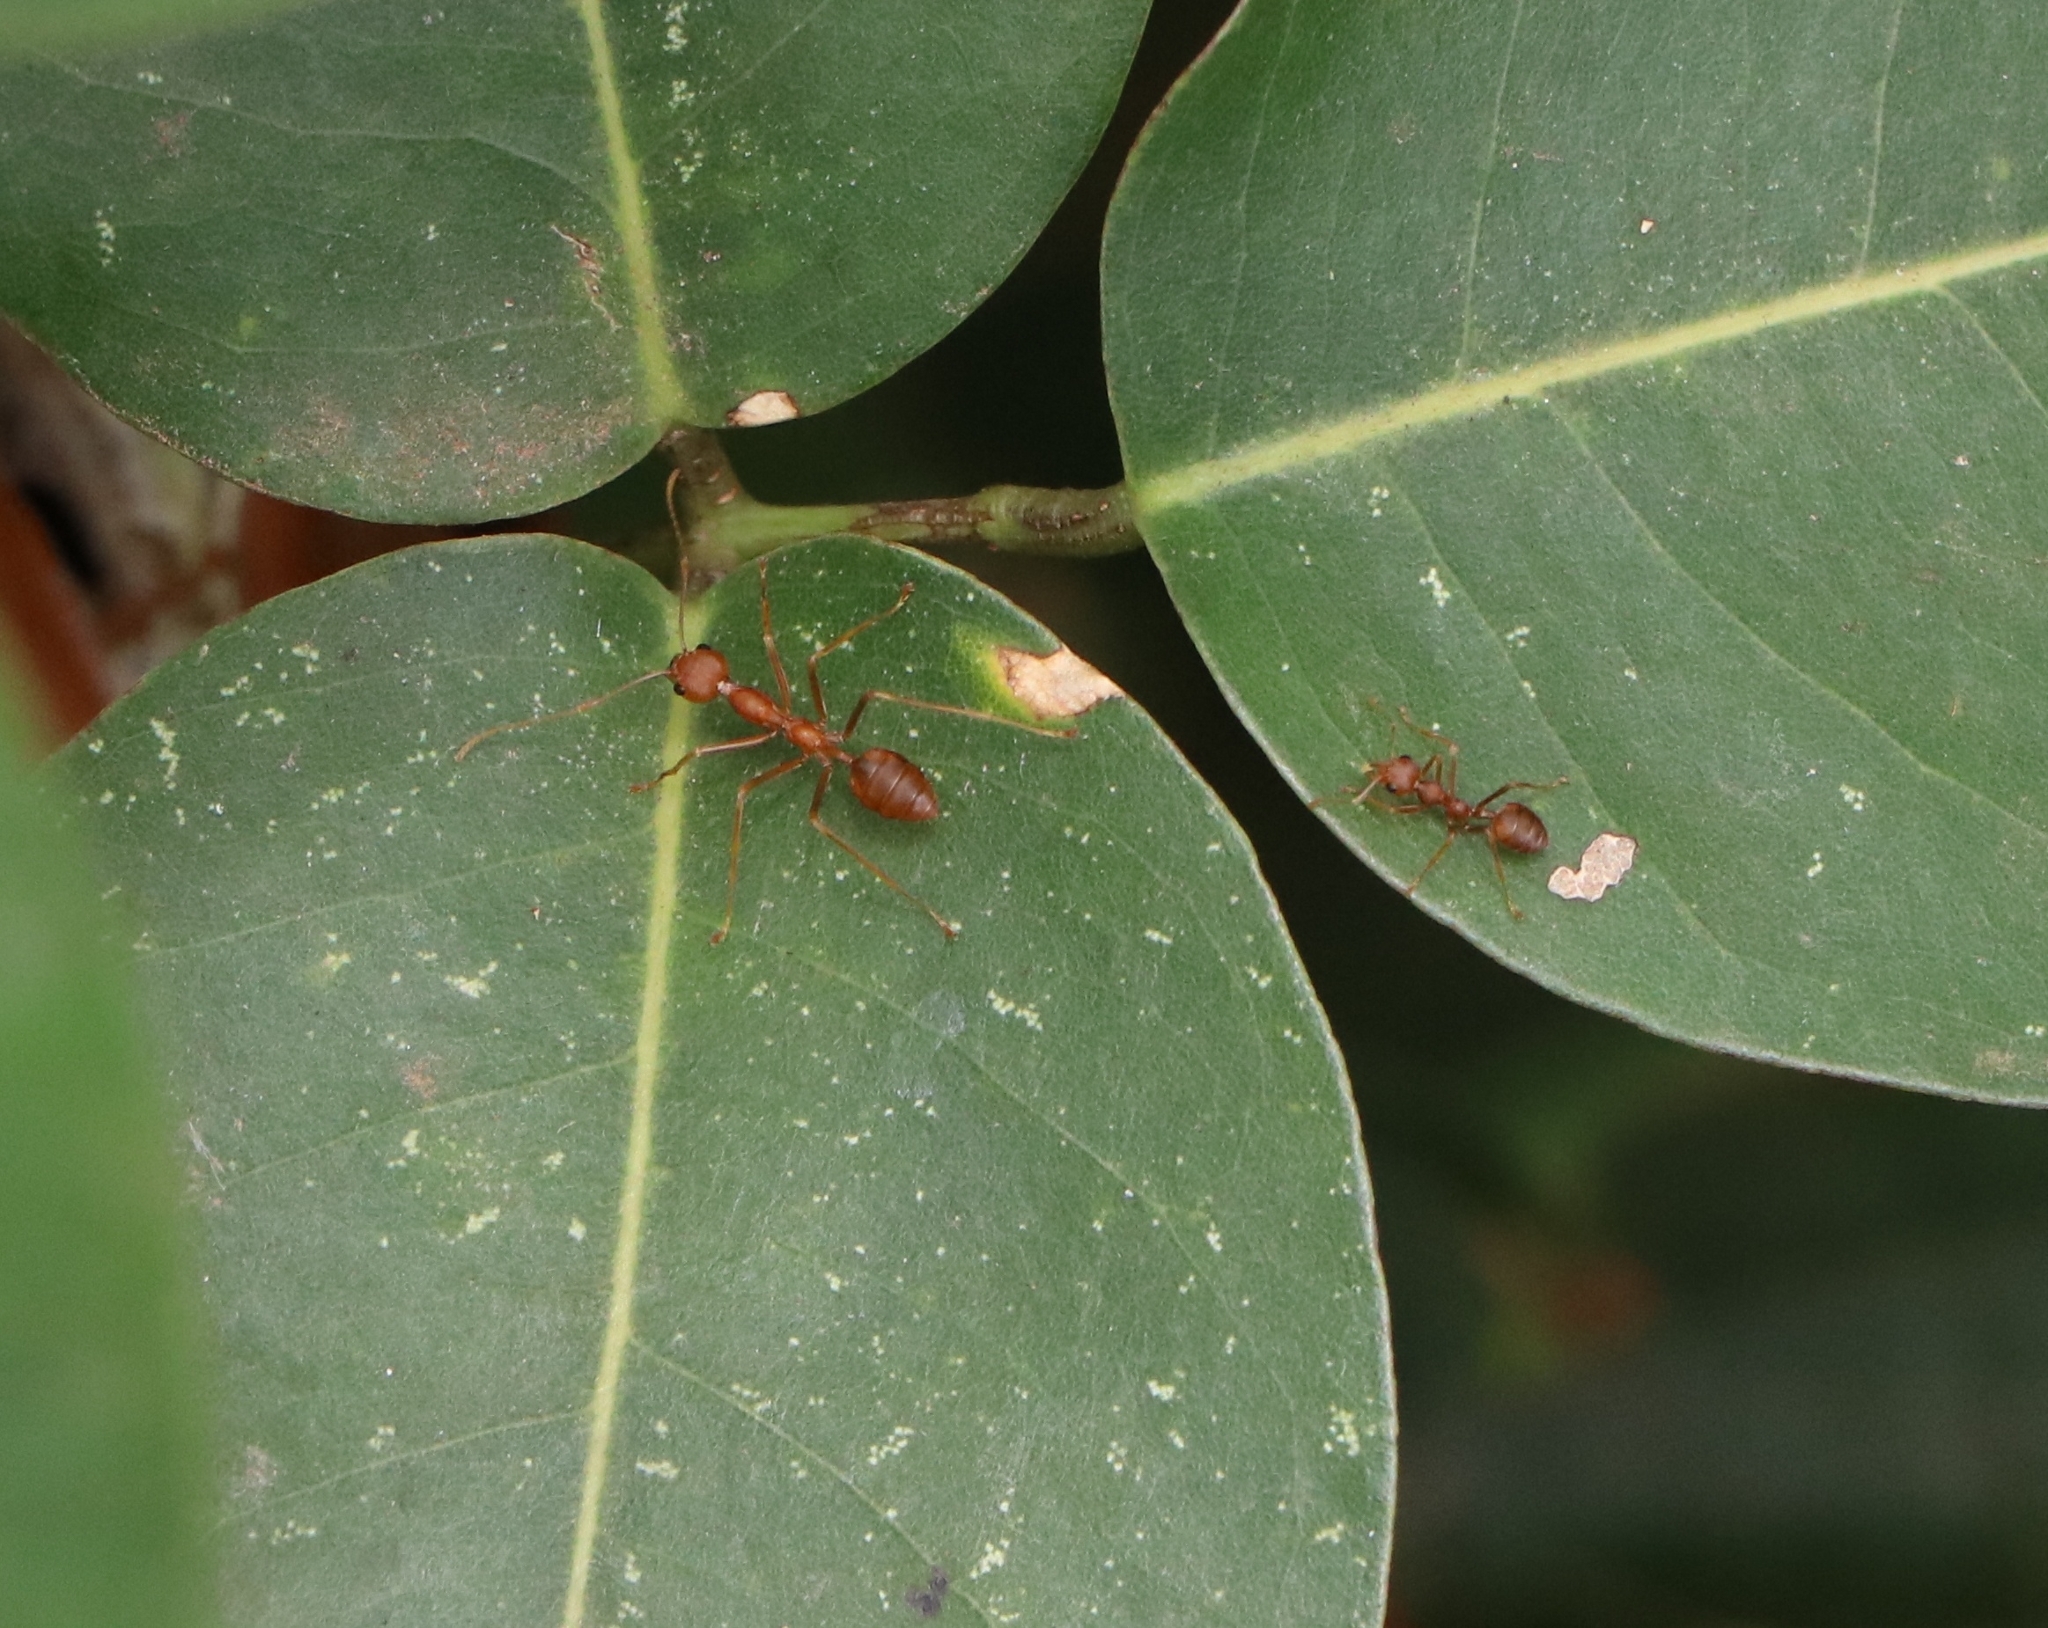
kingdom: Animalia
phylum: Arthropoda
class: Insecta
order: Hymenoptera
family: Formicidae
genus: Oecophylla
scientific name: Oecophylla smaragdina
